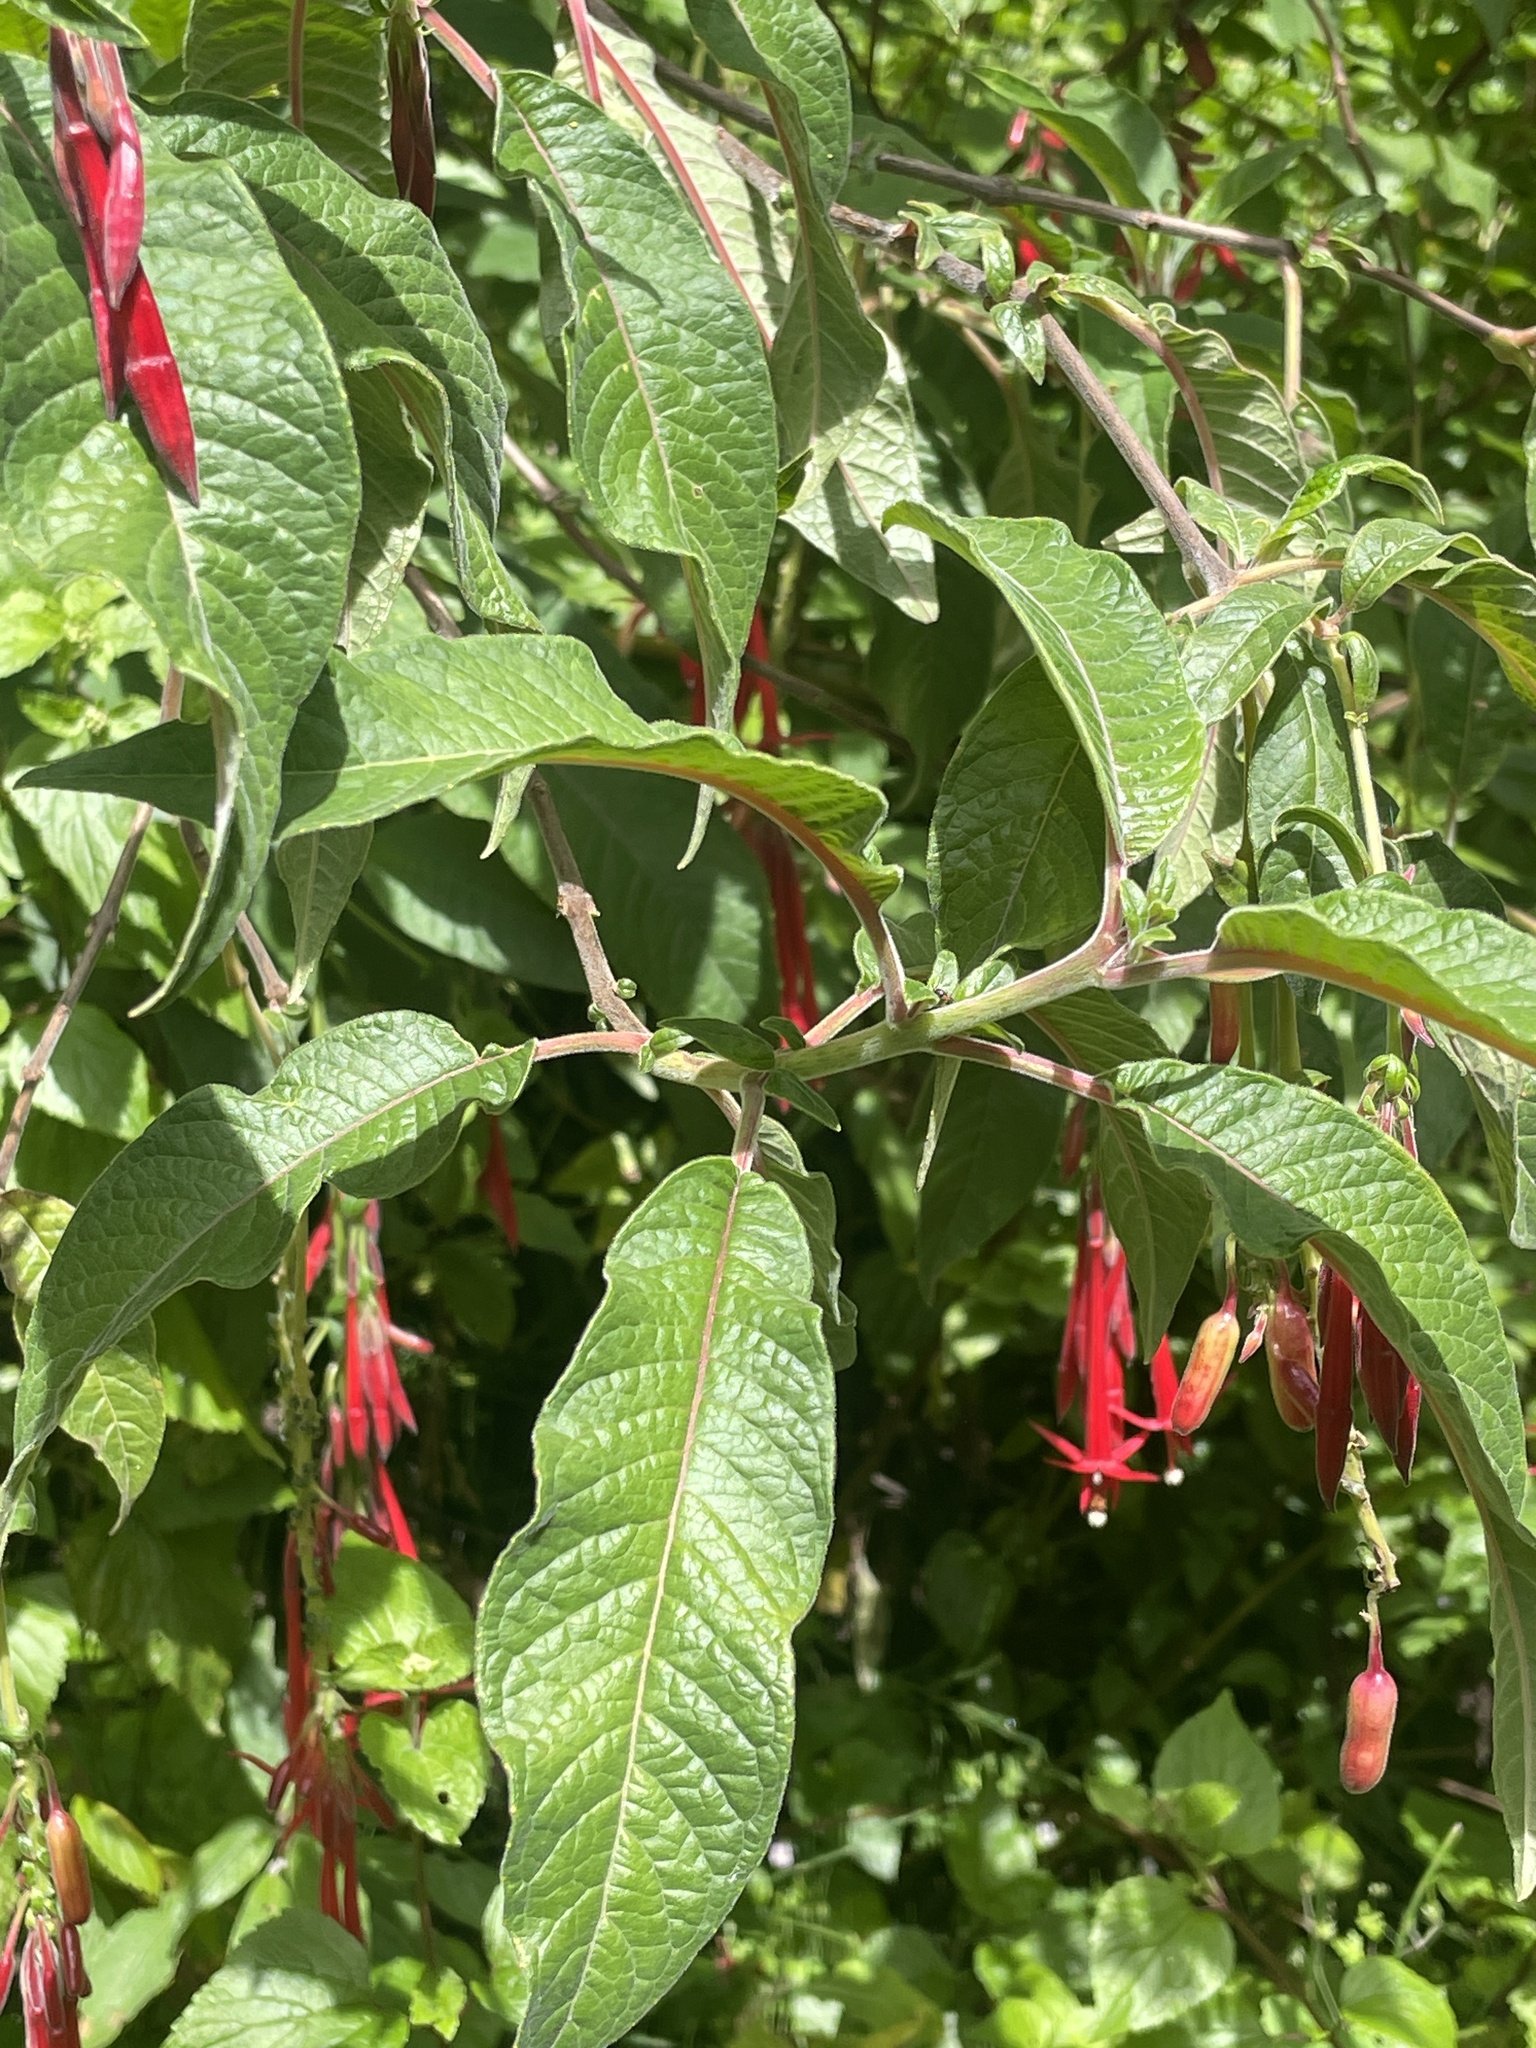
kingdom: Plantae
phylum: Tracheophyta
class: Magnoliopsida
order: Myrtales
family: Onagraceae
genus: Fuchsia
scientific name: Fuchsia boliviana
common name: Bolivian fuchsia
